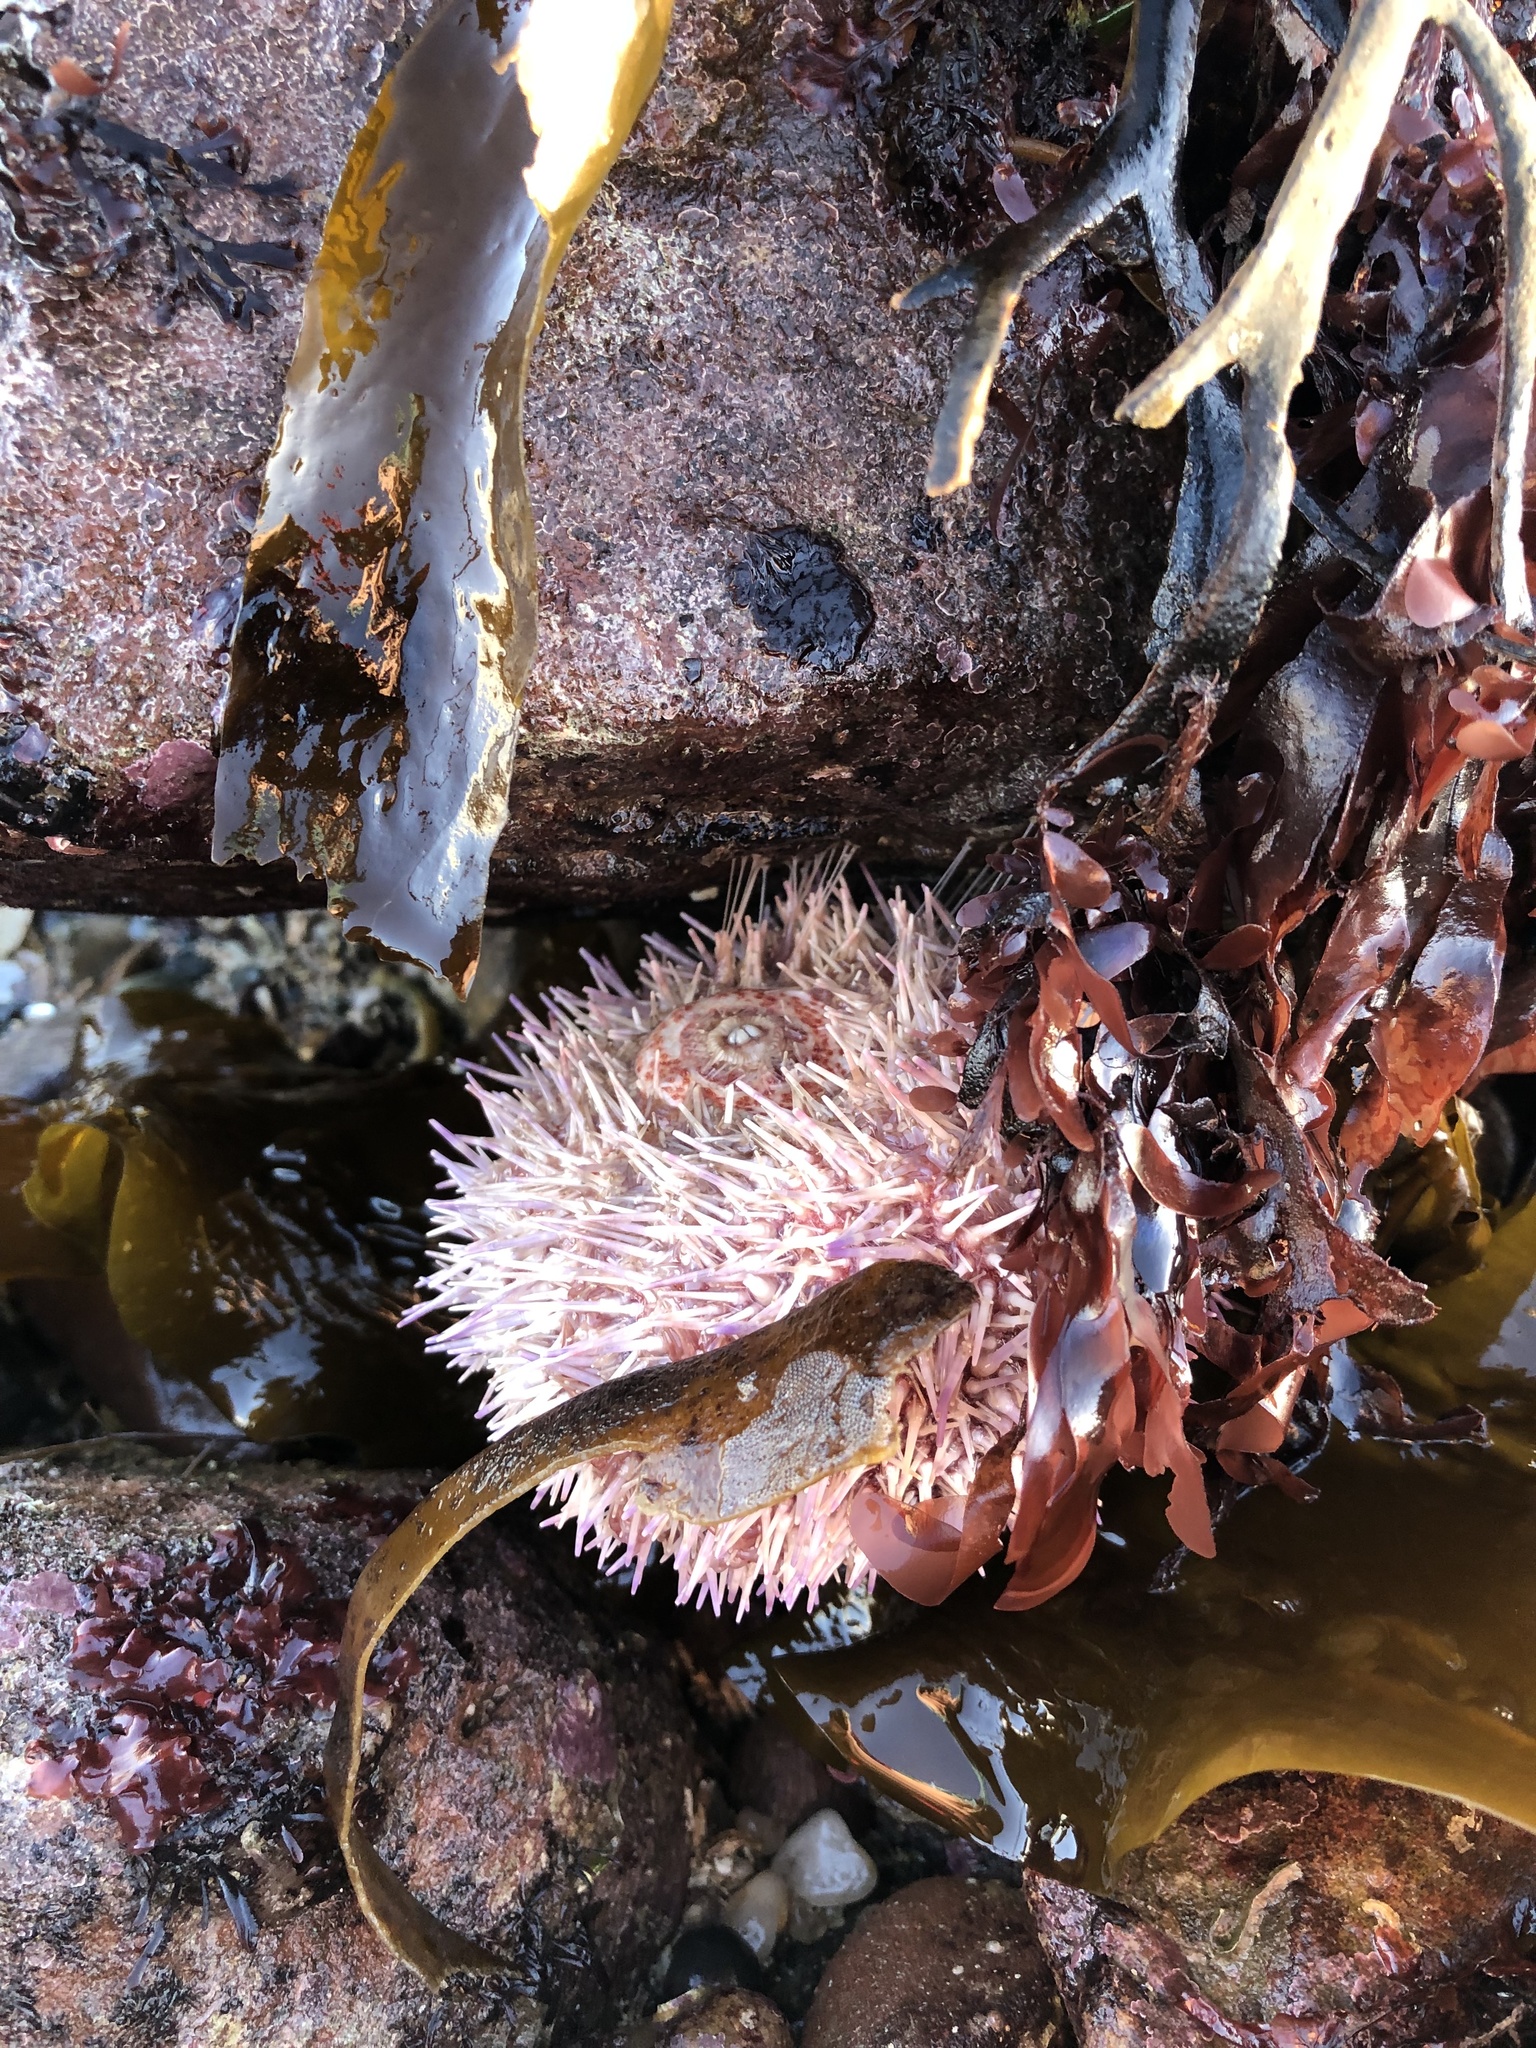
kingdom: Animalia
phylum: Echinodermata
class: Echinoidea
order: Camarodonta
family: Echinidae
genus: Echinus
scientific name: Echinus esculentus
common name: Edible sea urchin
